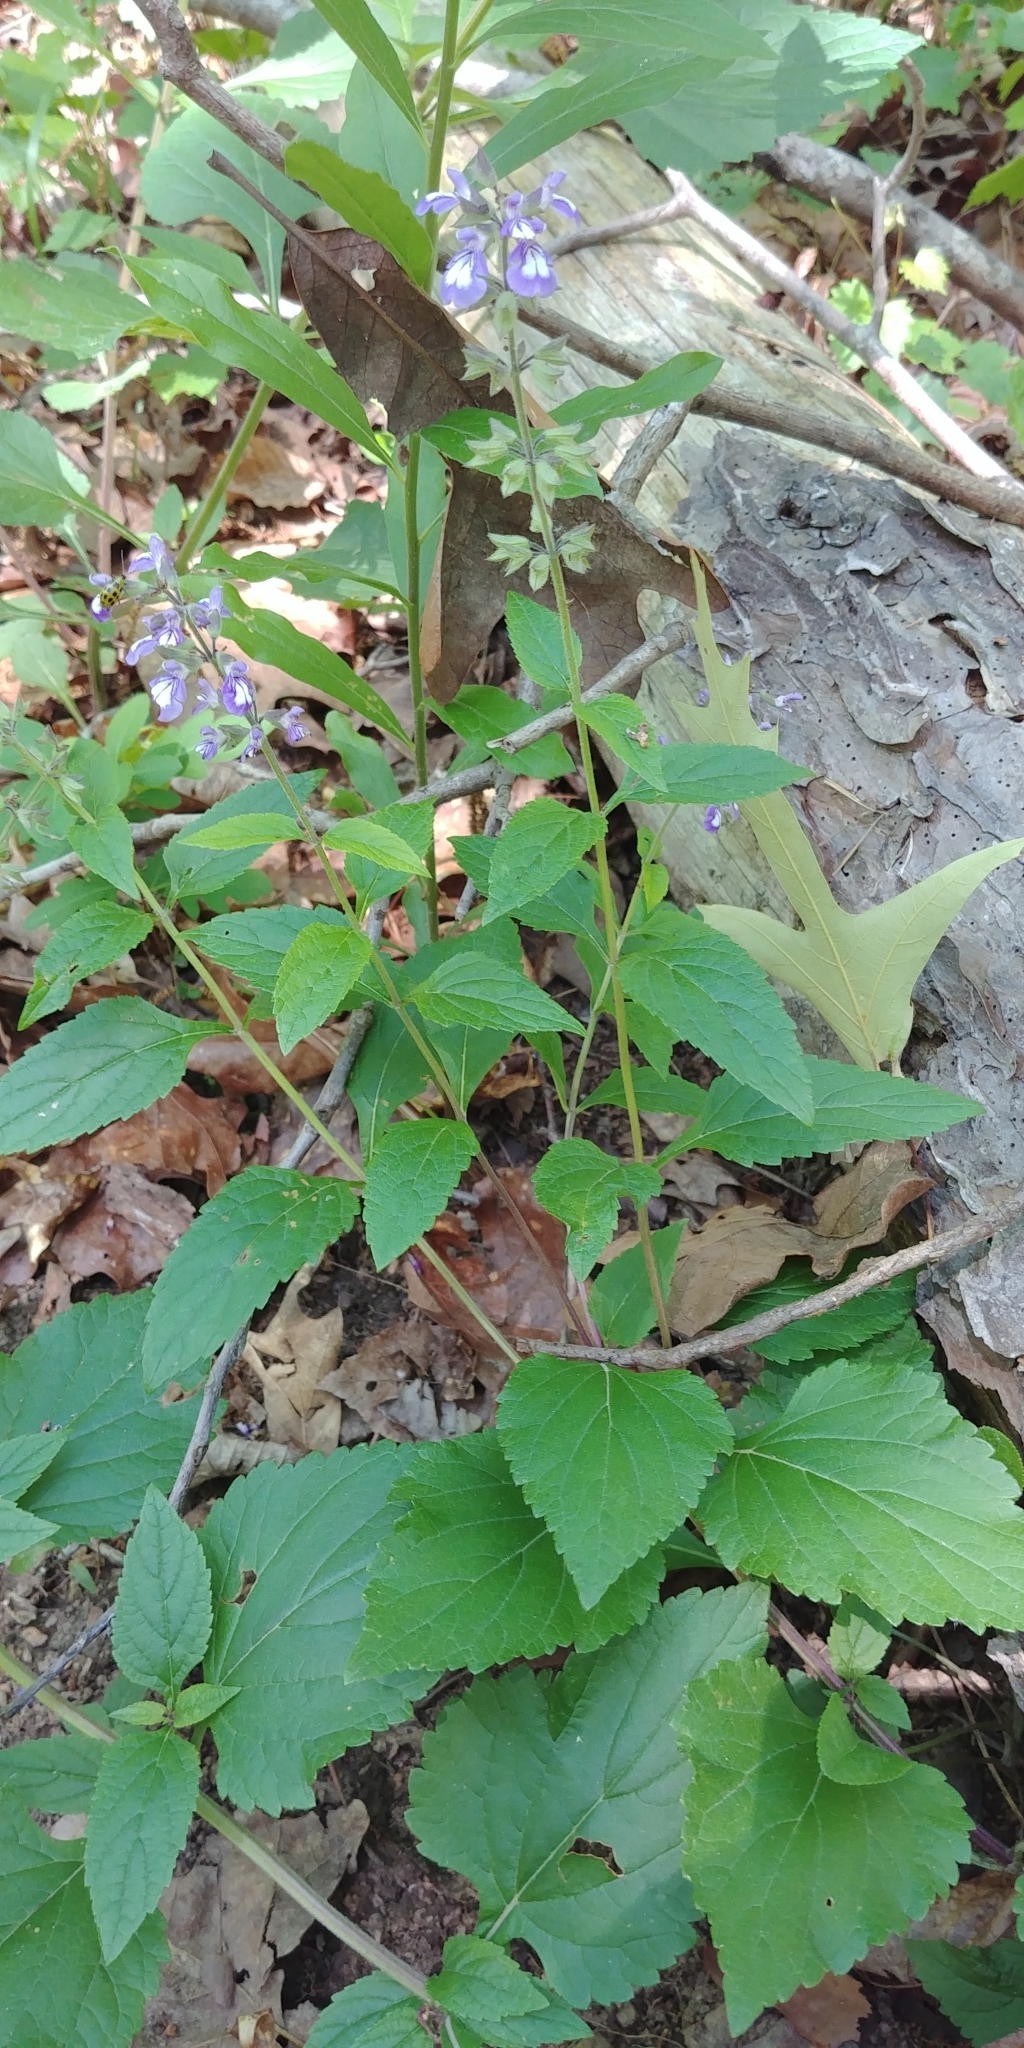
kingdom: Plantae
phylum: Tracheophyta
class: Magnoliopsida
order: Lamiales
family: Lamiaceae
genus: Salvia
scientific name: Salvia urticifolia
